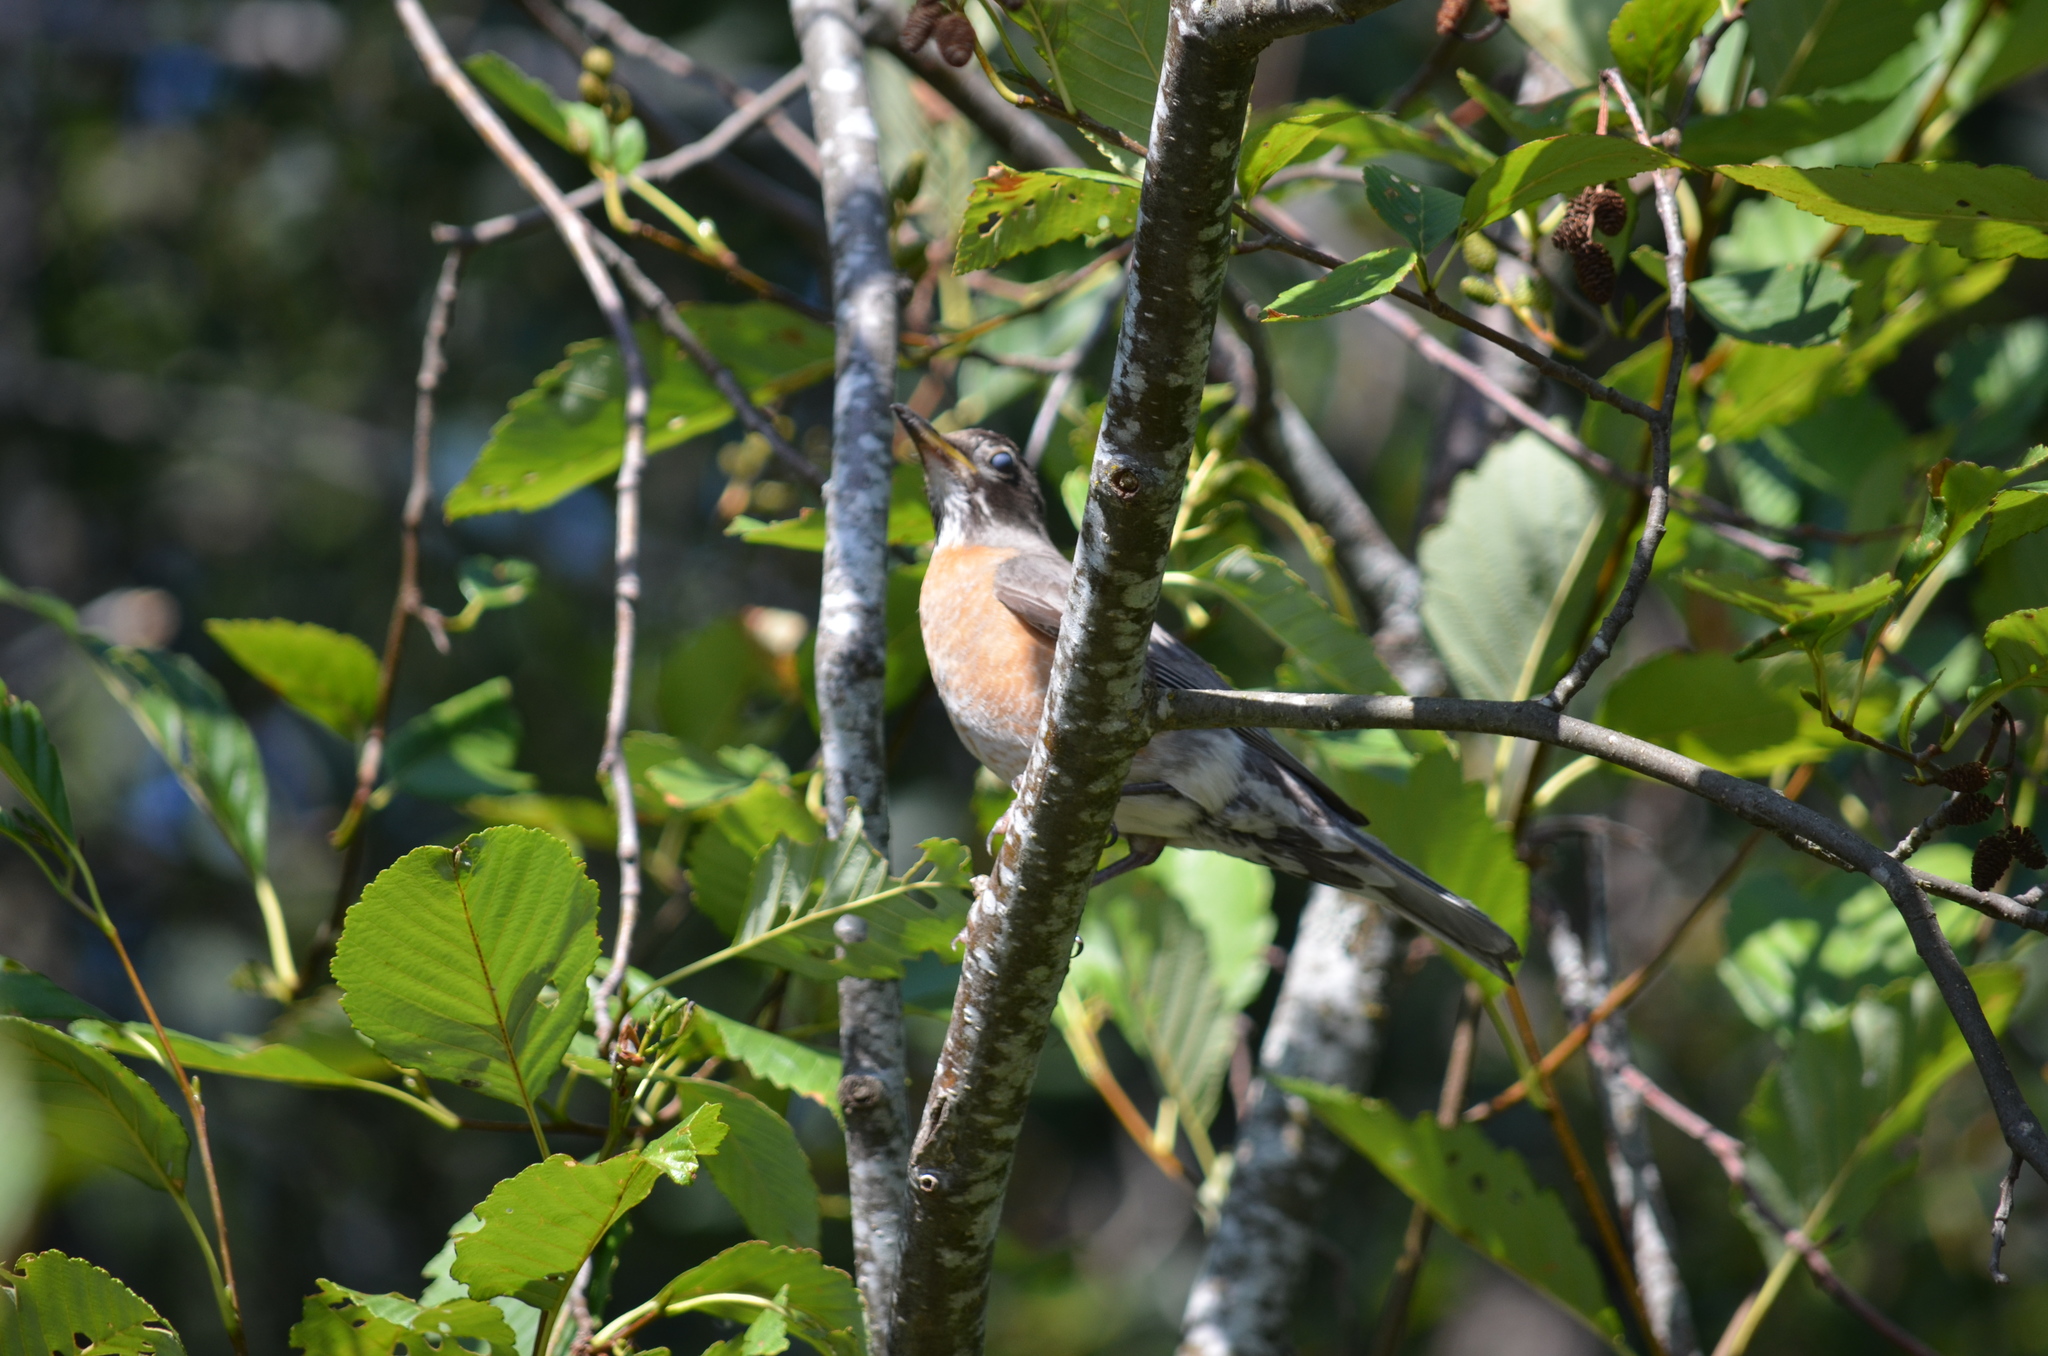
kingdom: Animalia
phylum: Chordata
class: Aves
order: Passeriformes
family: Turdidae
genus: Turdus
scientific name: Turdus migratorius
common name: American robin
